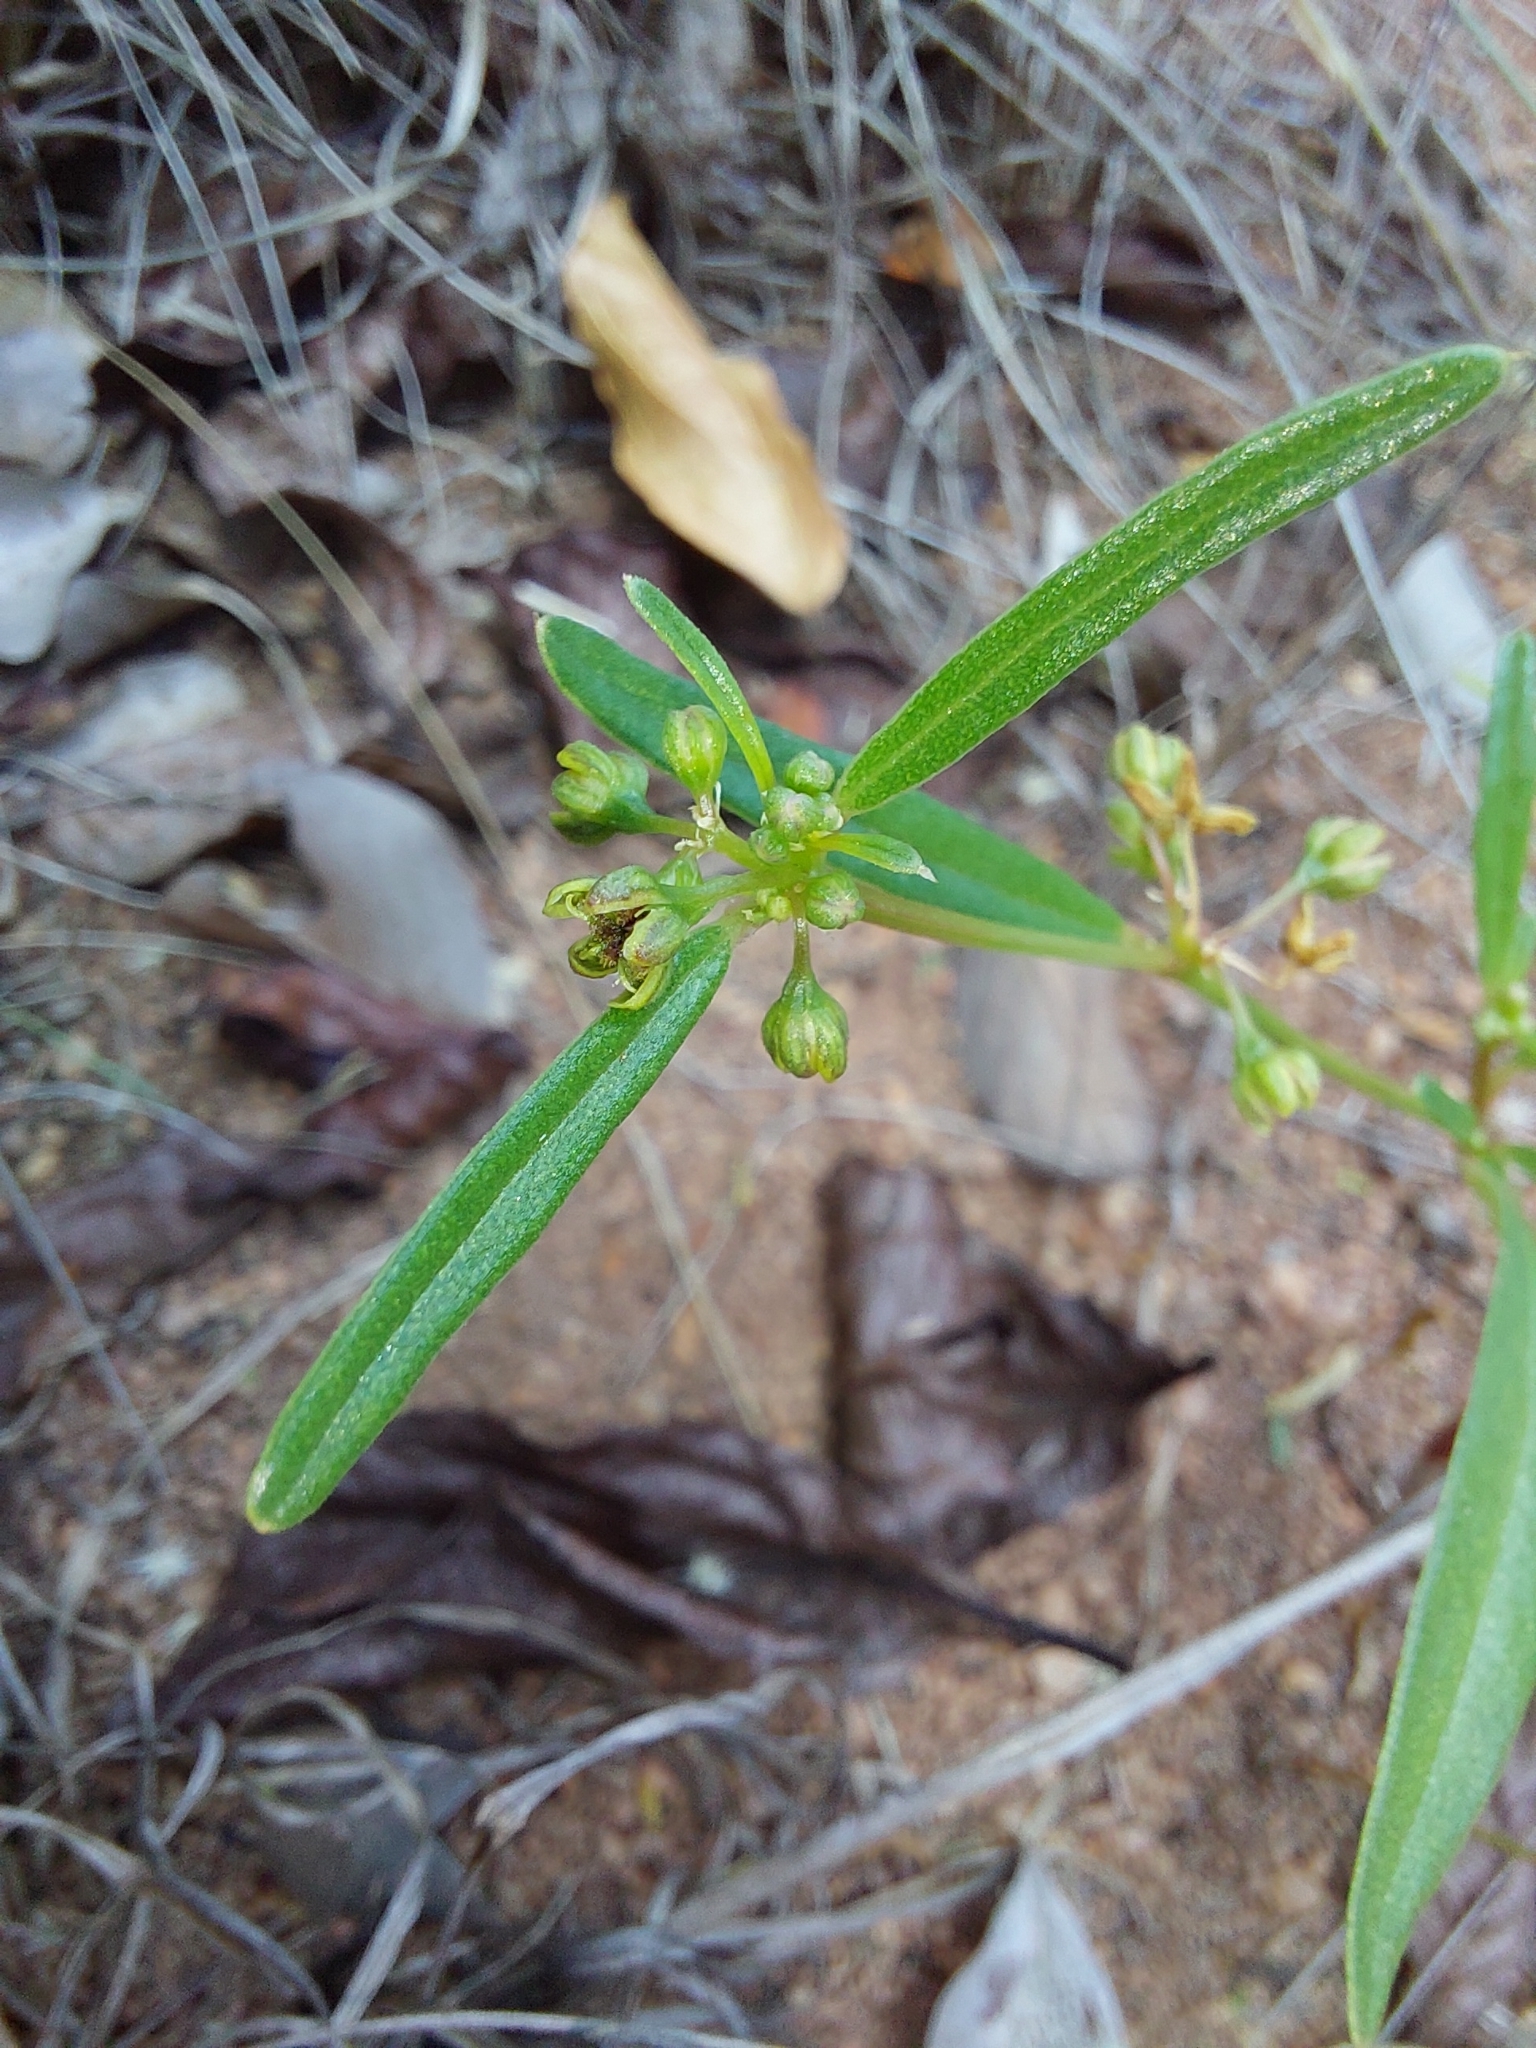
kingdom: Plantae
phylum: Tracheophyta
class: Magnoliopsida
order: Caryophyllales
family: Gisekiaceae
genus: Gisekia
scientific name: Gisekia pharnaceoides
